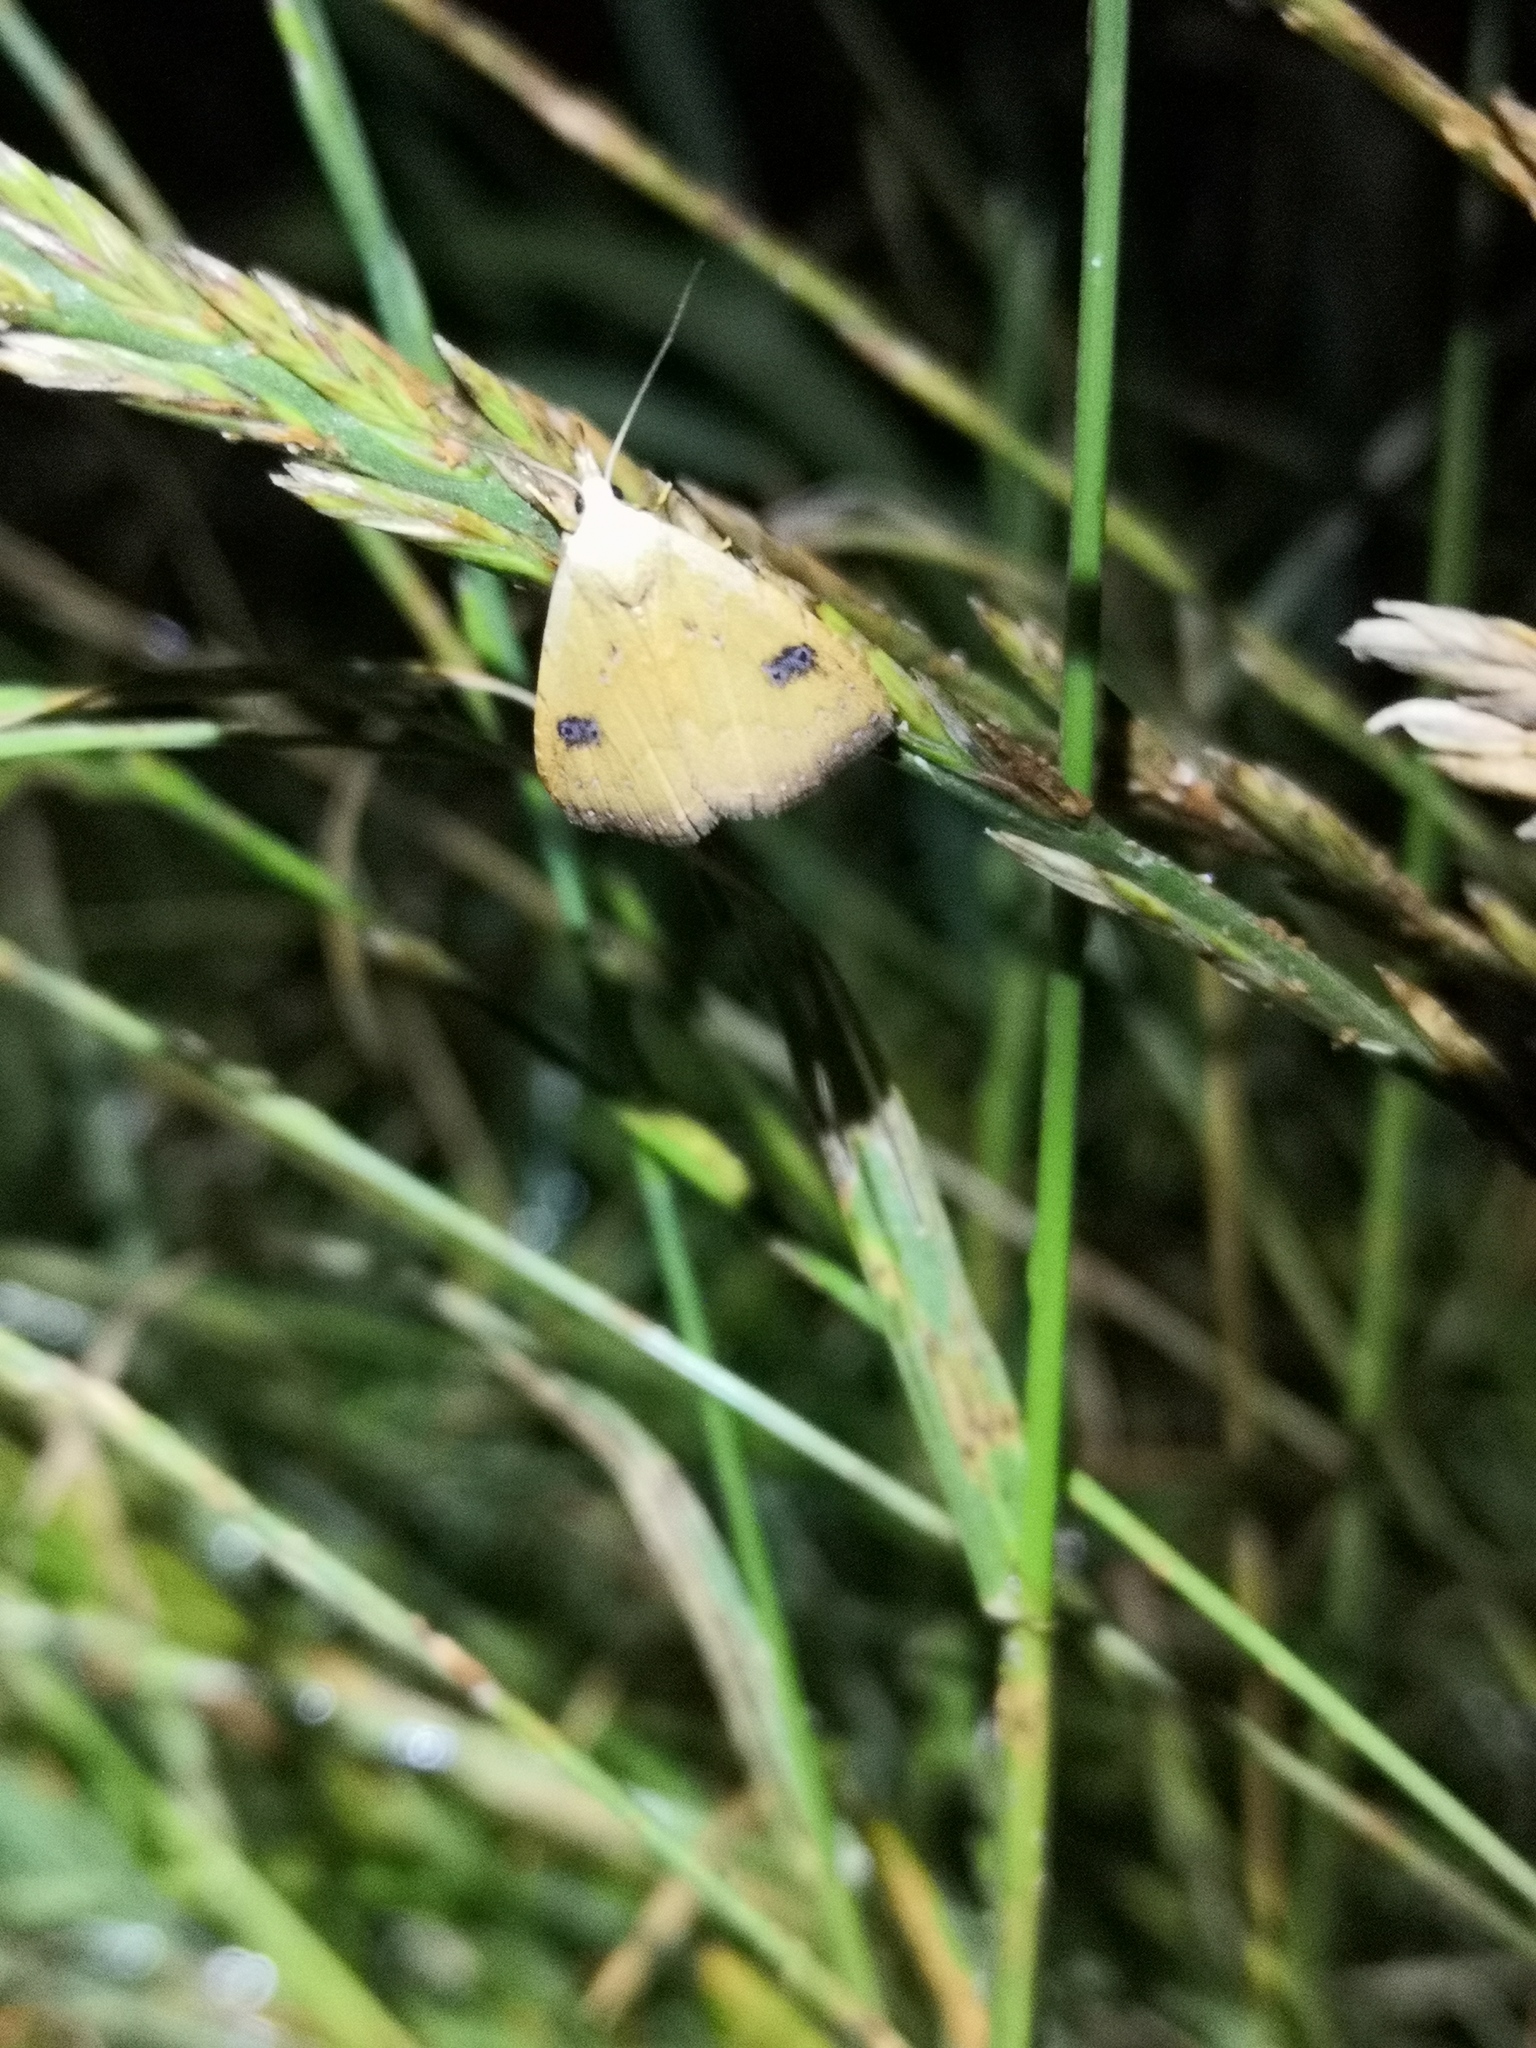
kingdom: Animalia
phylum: Arthropoda
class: Insecta
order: Lepidoptera
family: Erebidae
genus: Rivula
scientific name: Rivula sericealis
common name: Straw dot
